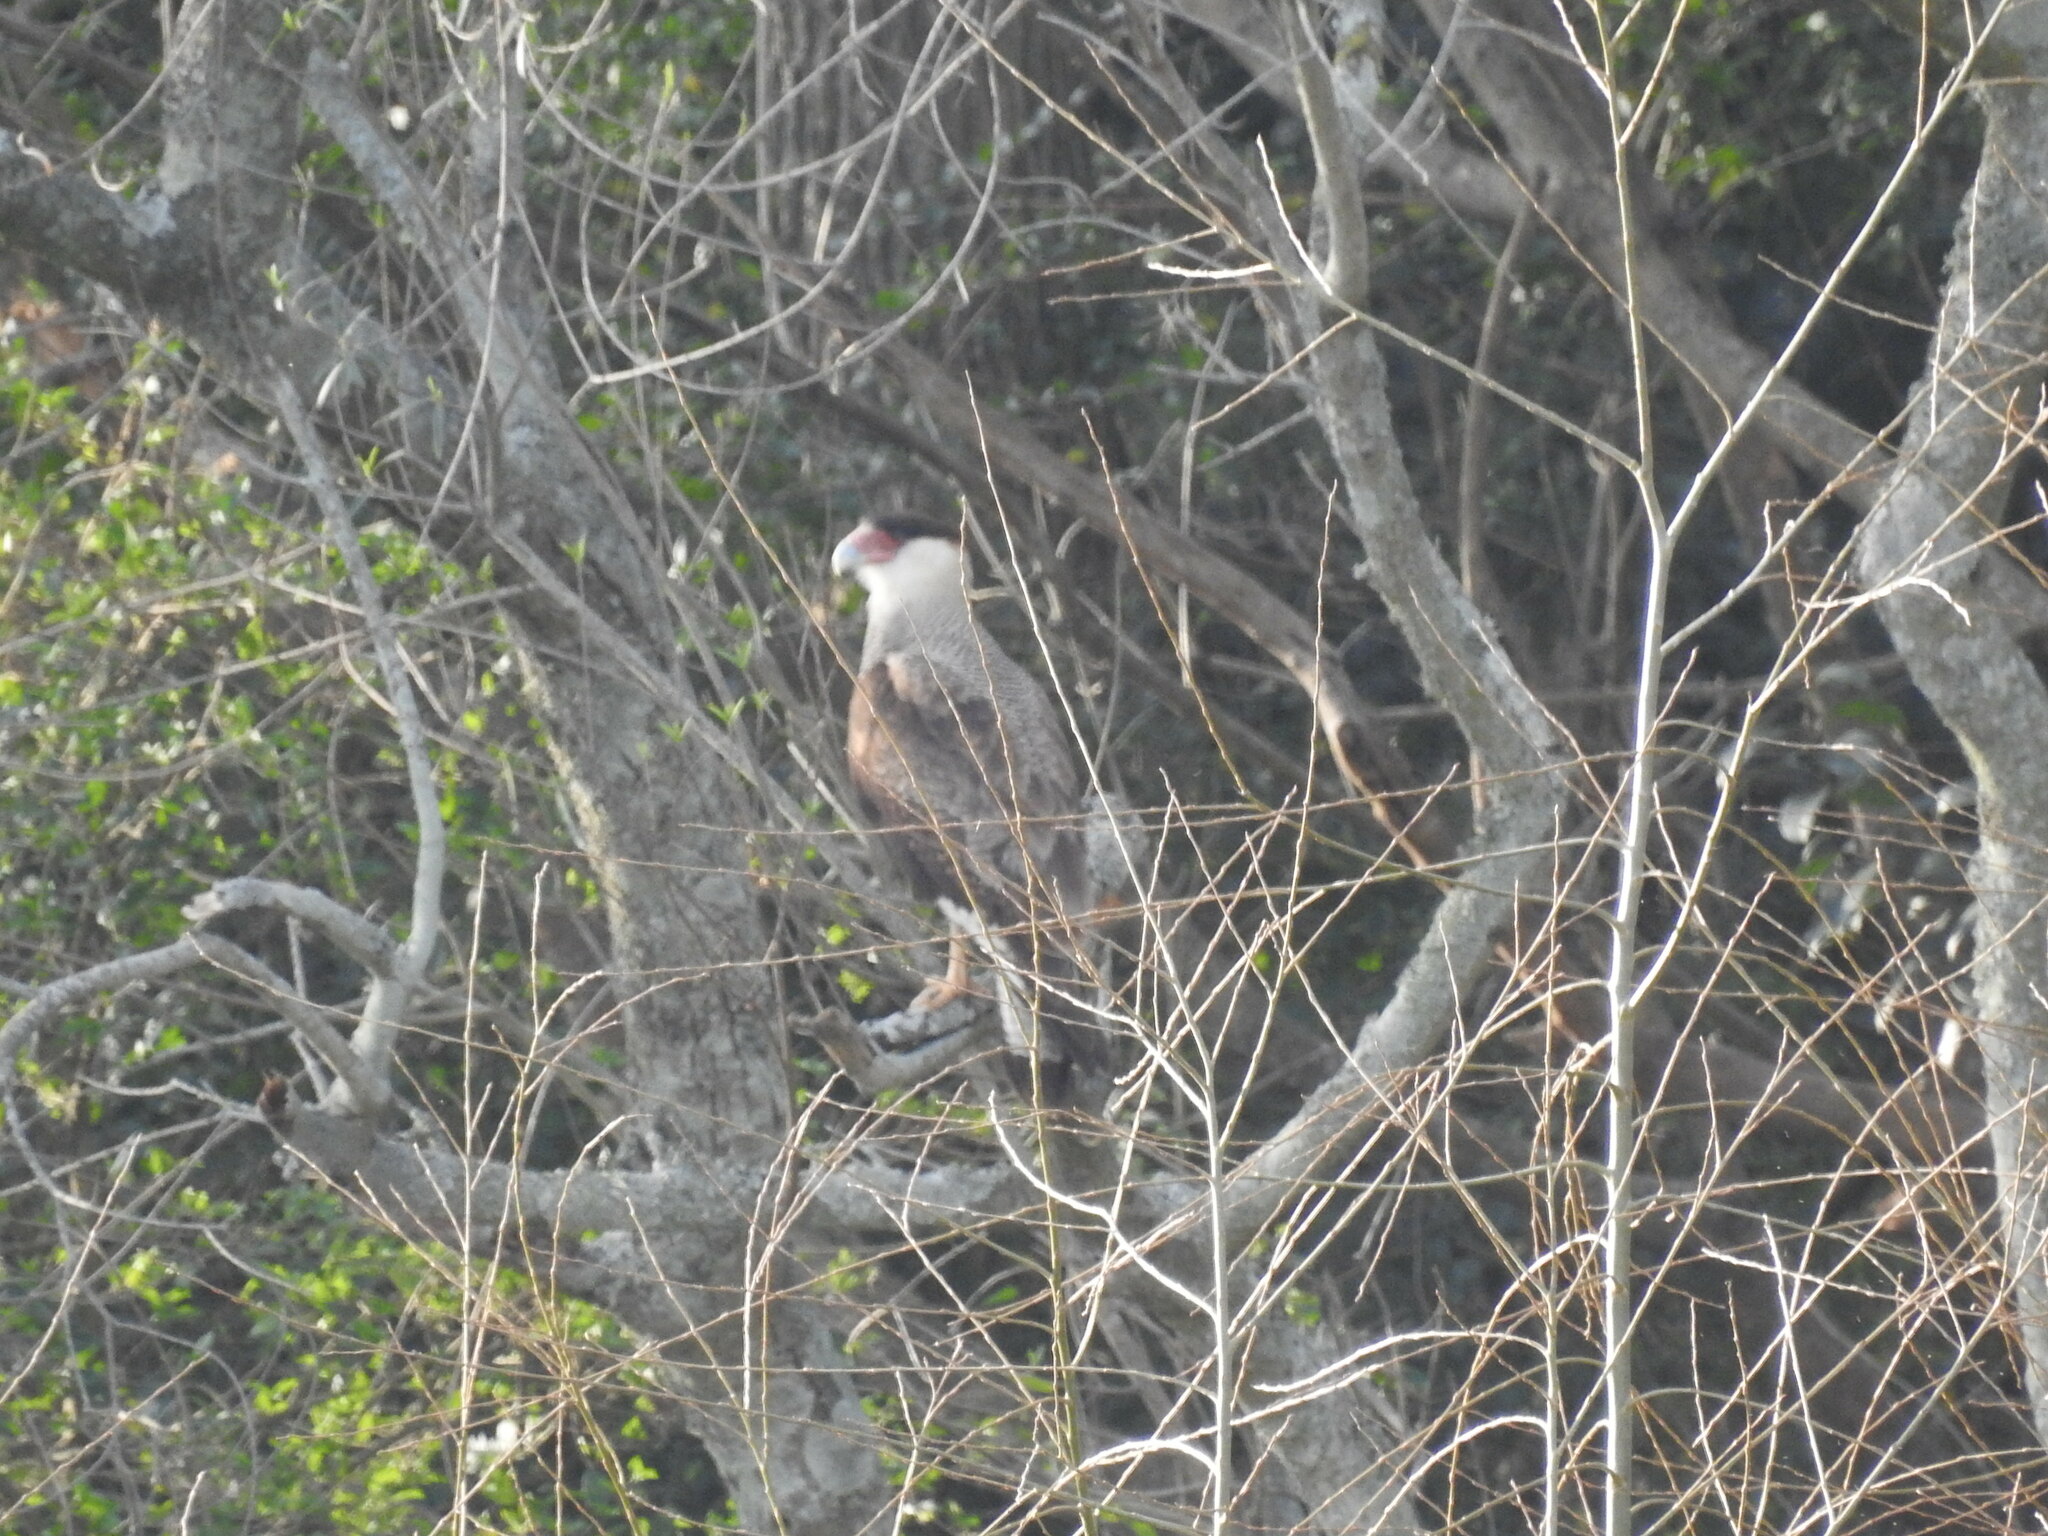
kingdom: Animalia
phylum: Chordata
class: Aves
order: Falconiformes
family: Falconidae
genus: Caracara
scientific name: Caracara plancus
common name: Southern caracara
